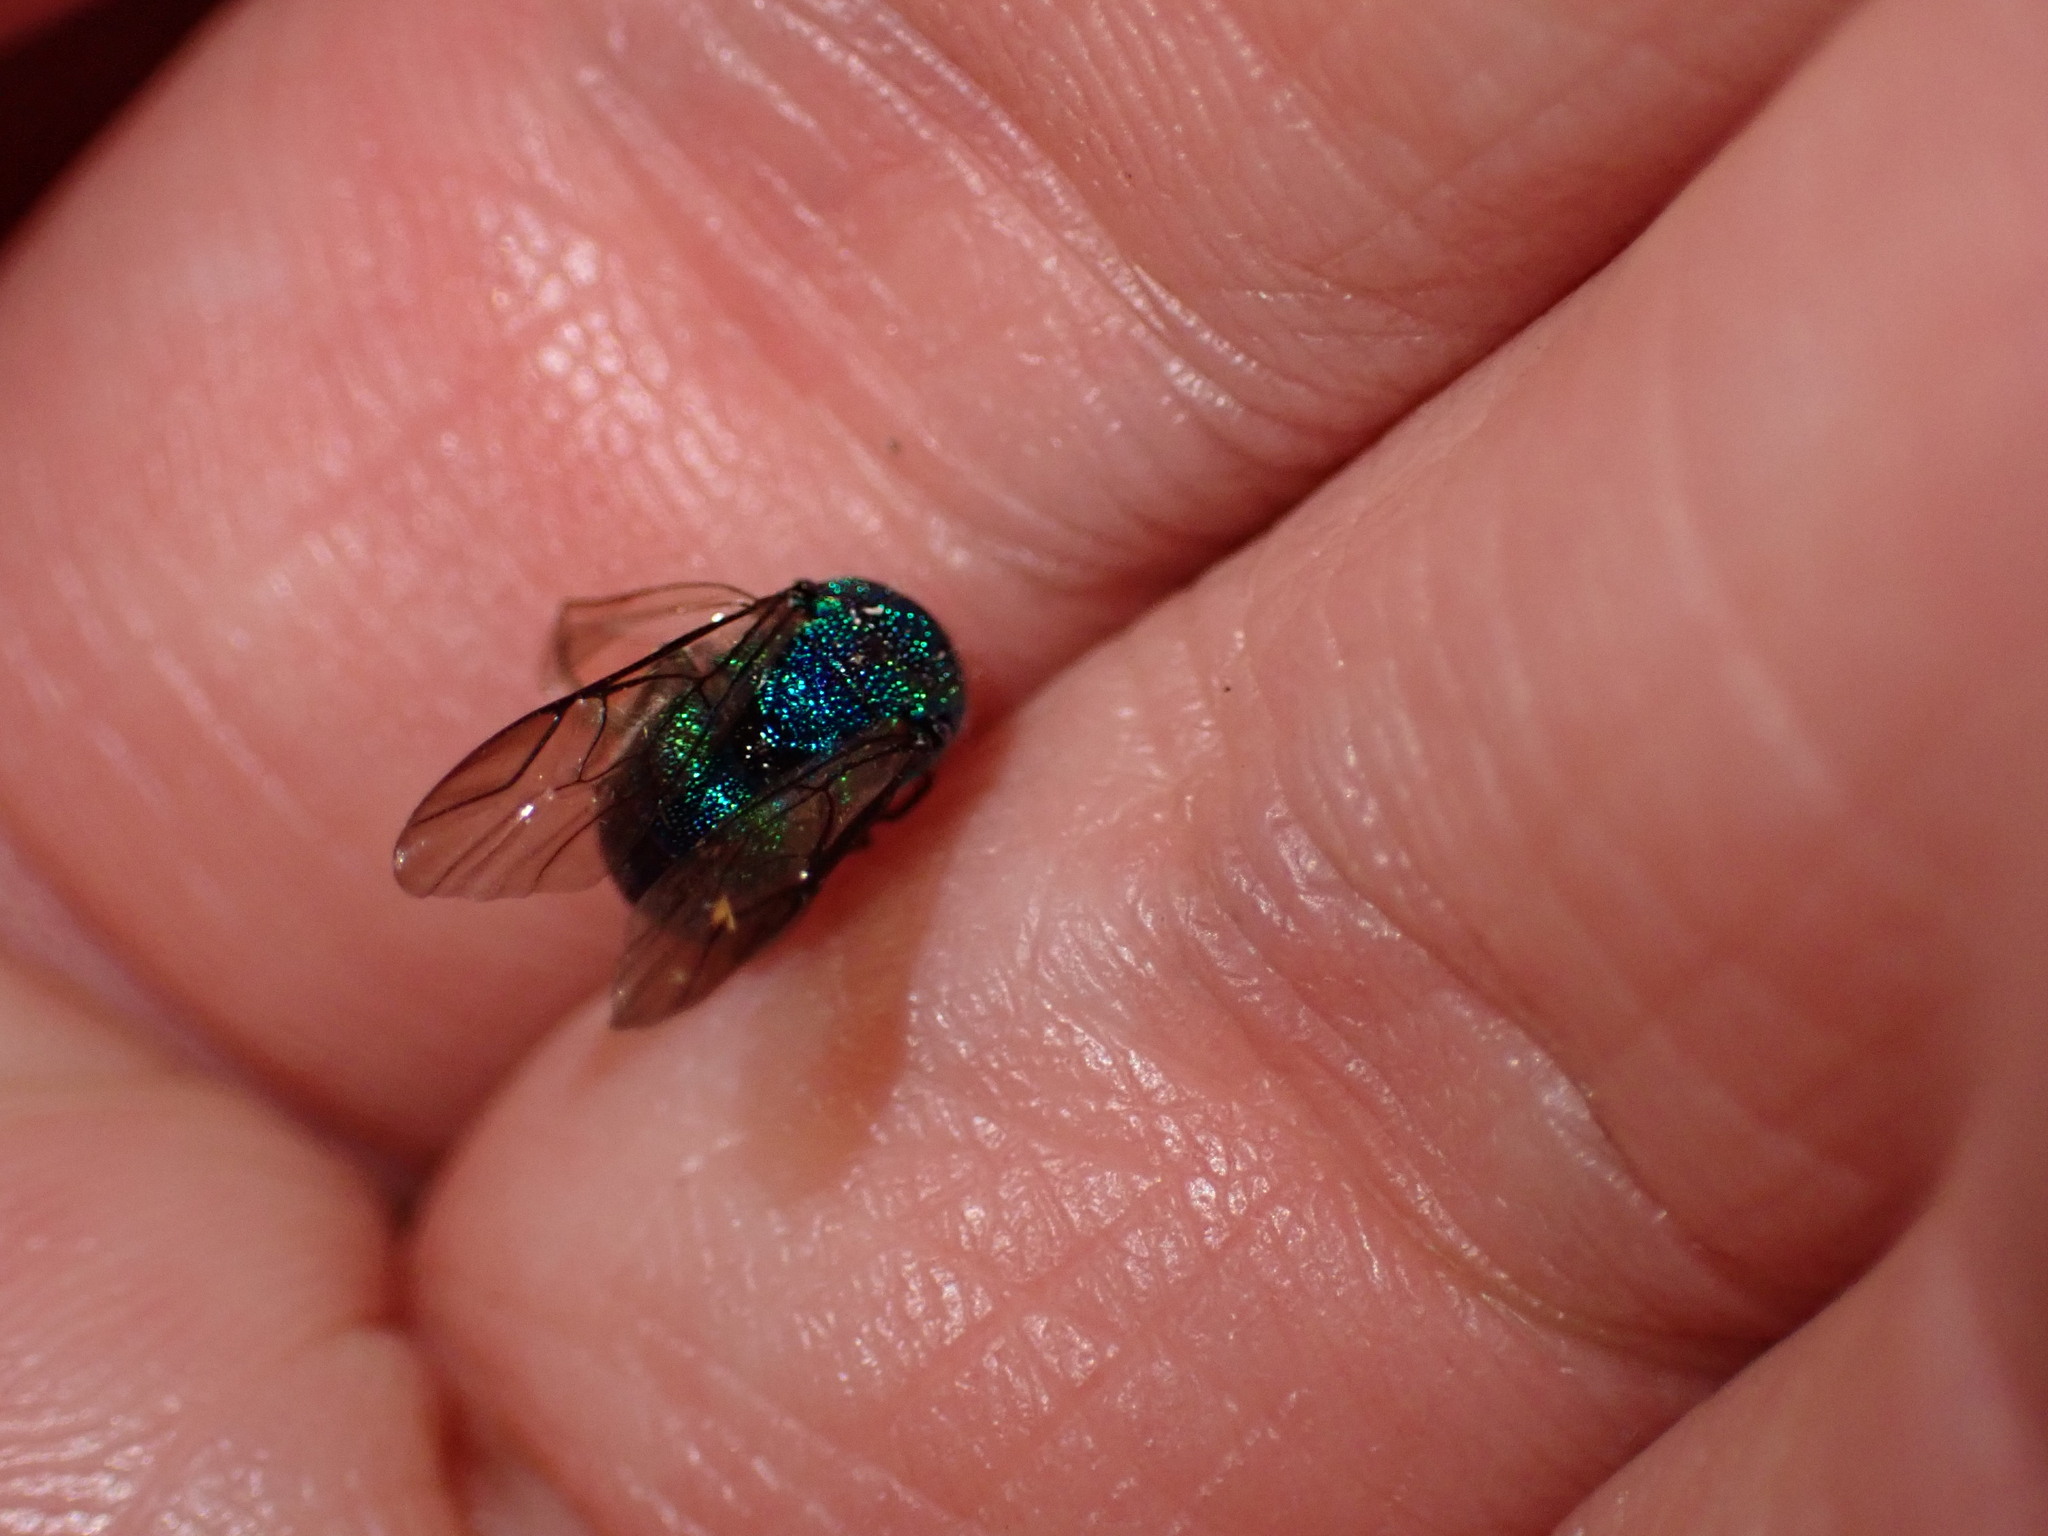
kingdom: Animalia
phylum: Arthropoda
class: Insecta
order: Hymenoptera
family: Chrysididae
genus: Chrysis
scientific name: Chrysis
